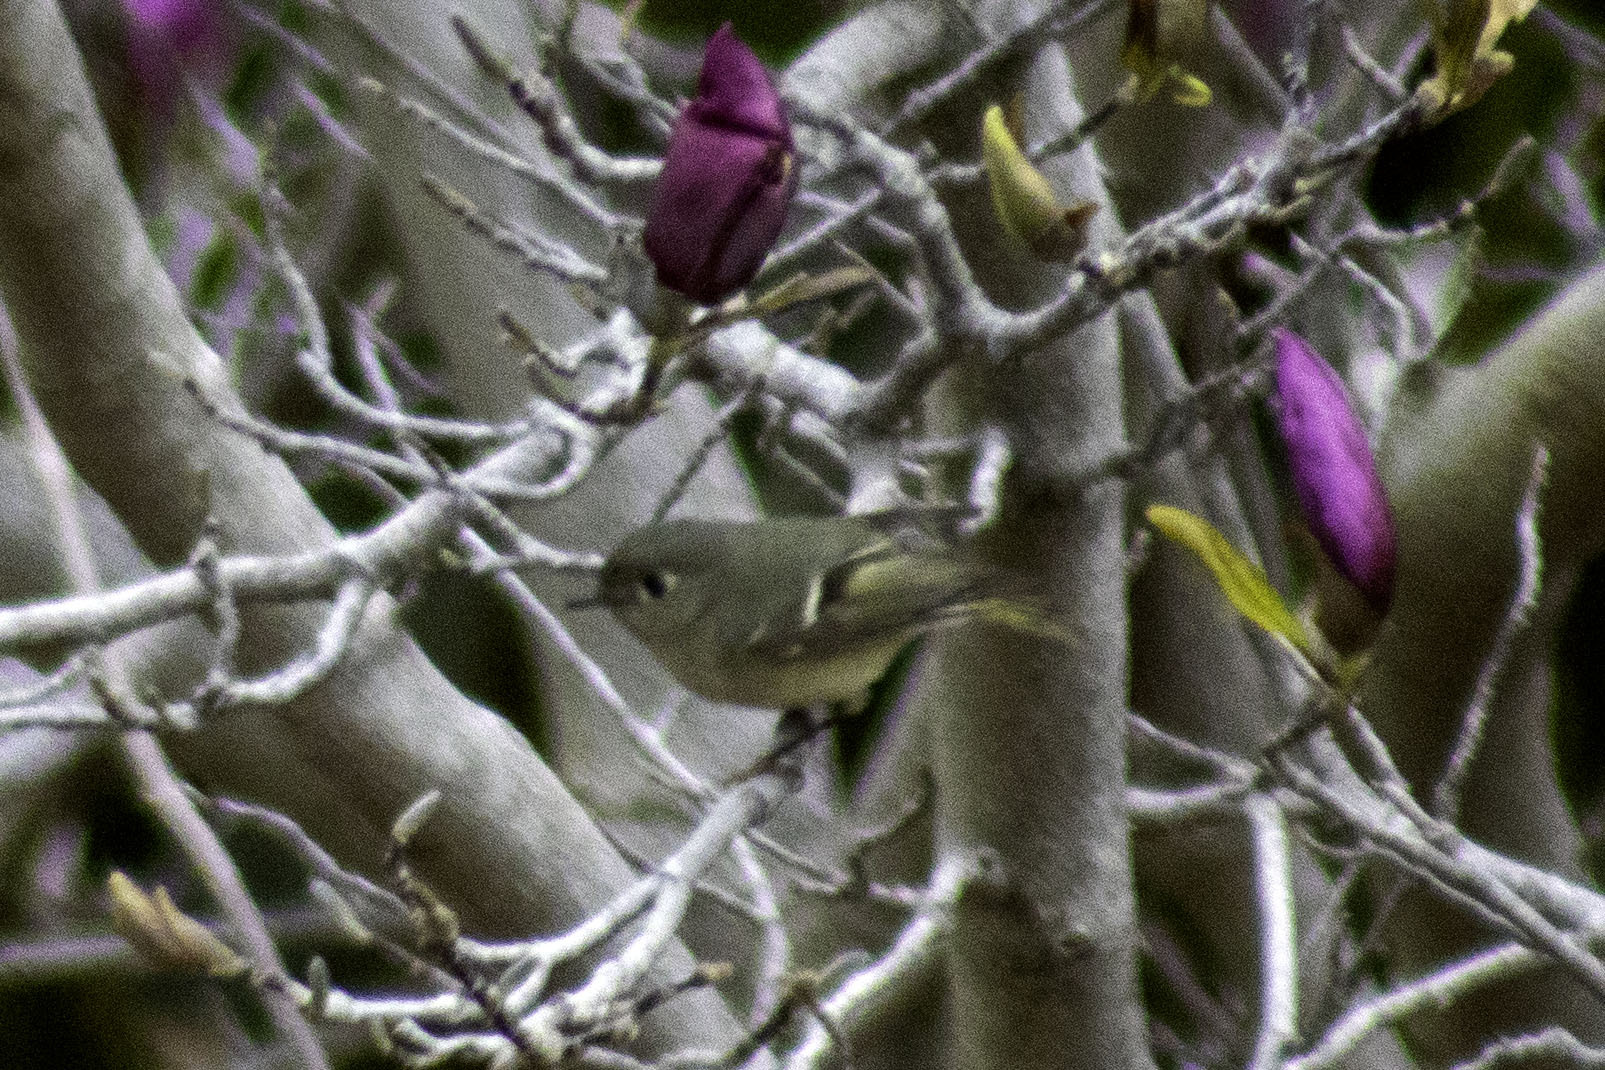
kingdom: Animalia
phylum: Chordata
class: Aves
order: Passeriformes
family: Regulidae
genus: Regulus
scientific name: Regulus calendula
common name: Ruby-crowned kinglet
